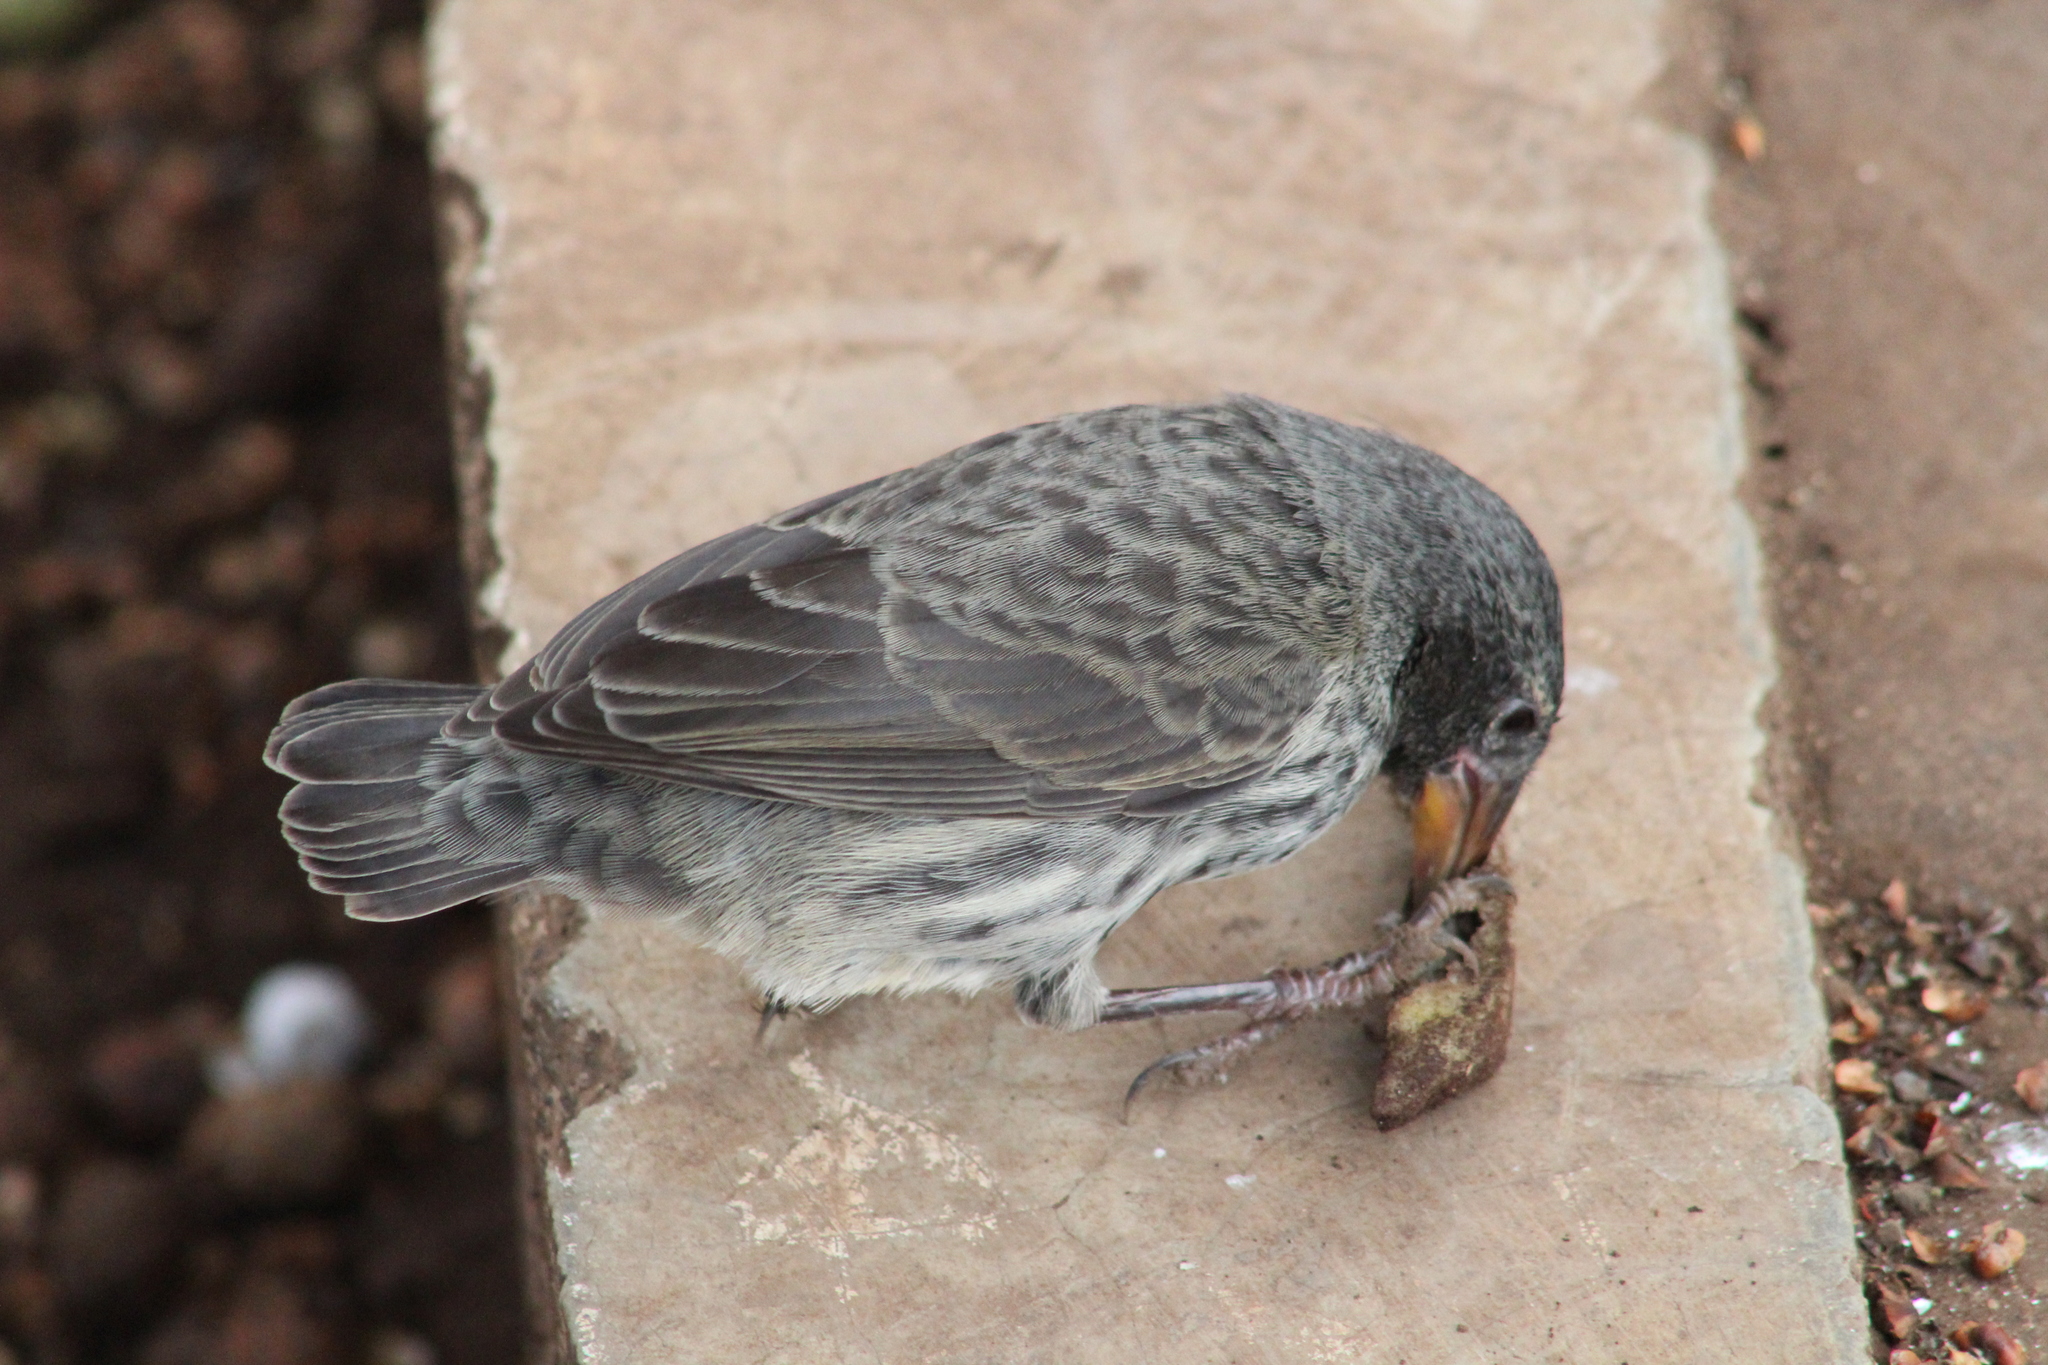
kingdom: Animalia
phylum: Chordata
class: Aves
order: Passeriformes
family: Thraupidae
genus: Geospiza
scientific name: Geospiza scandens
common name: Common cactus-finch
